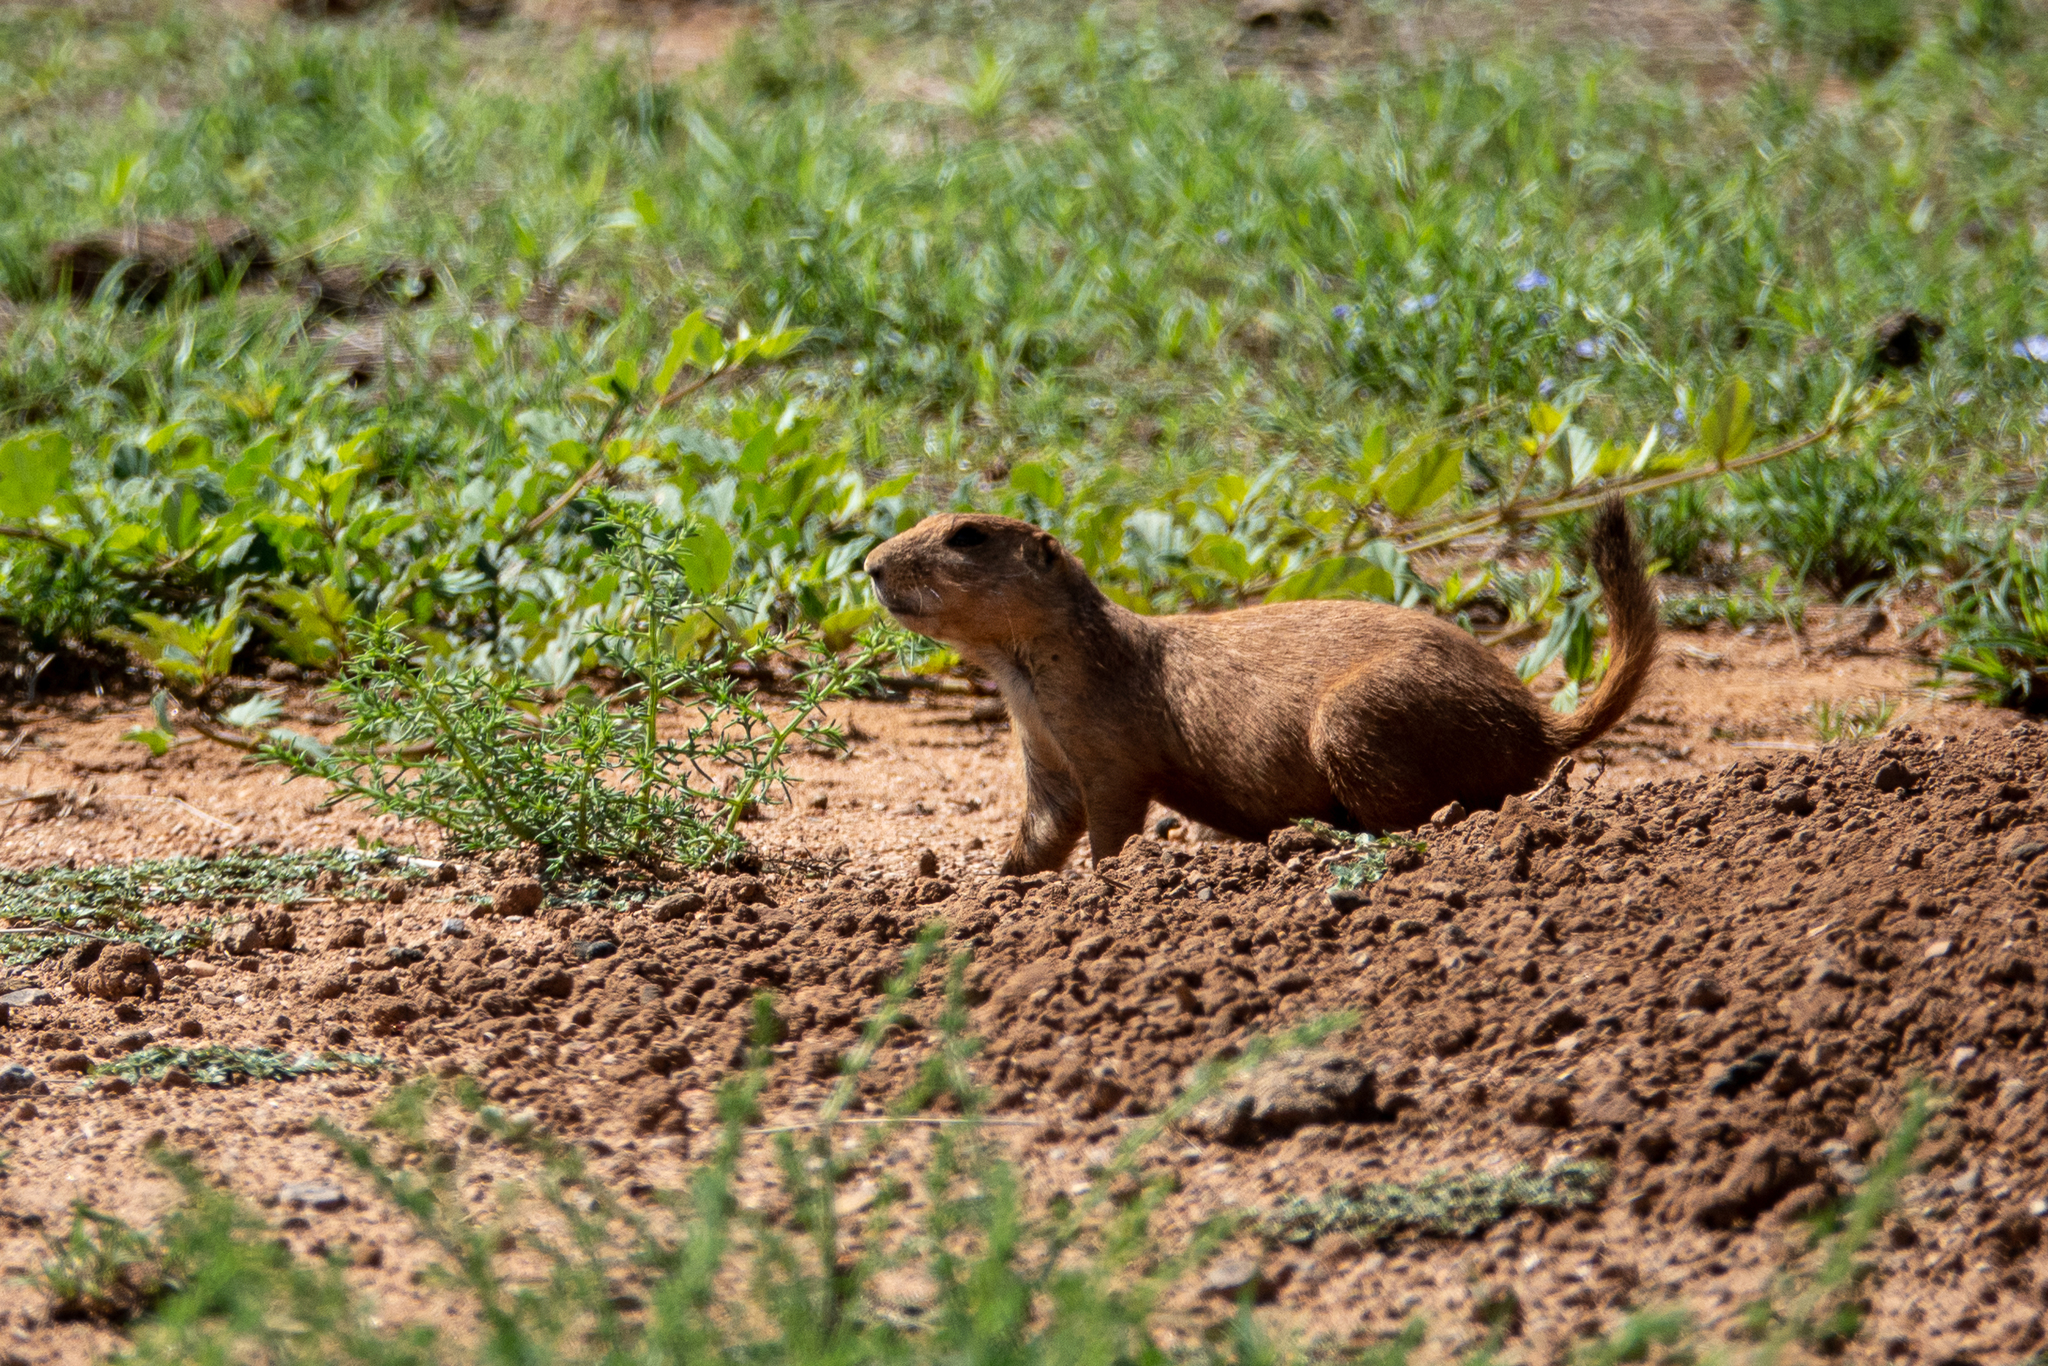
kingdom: Animalia
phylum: Chordata
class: Mammalia
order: Rodentia
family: Sciuridae
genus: Cynomys
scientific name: Cynomys ludovicianus
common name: Black-tailed prairie dog
